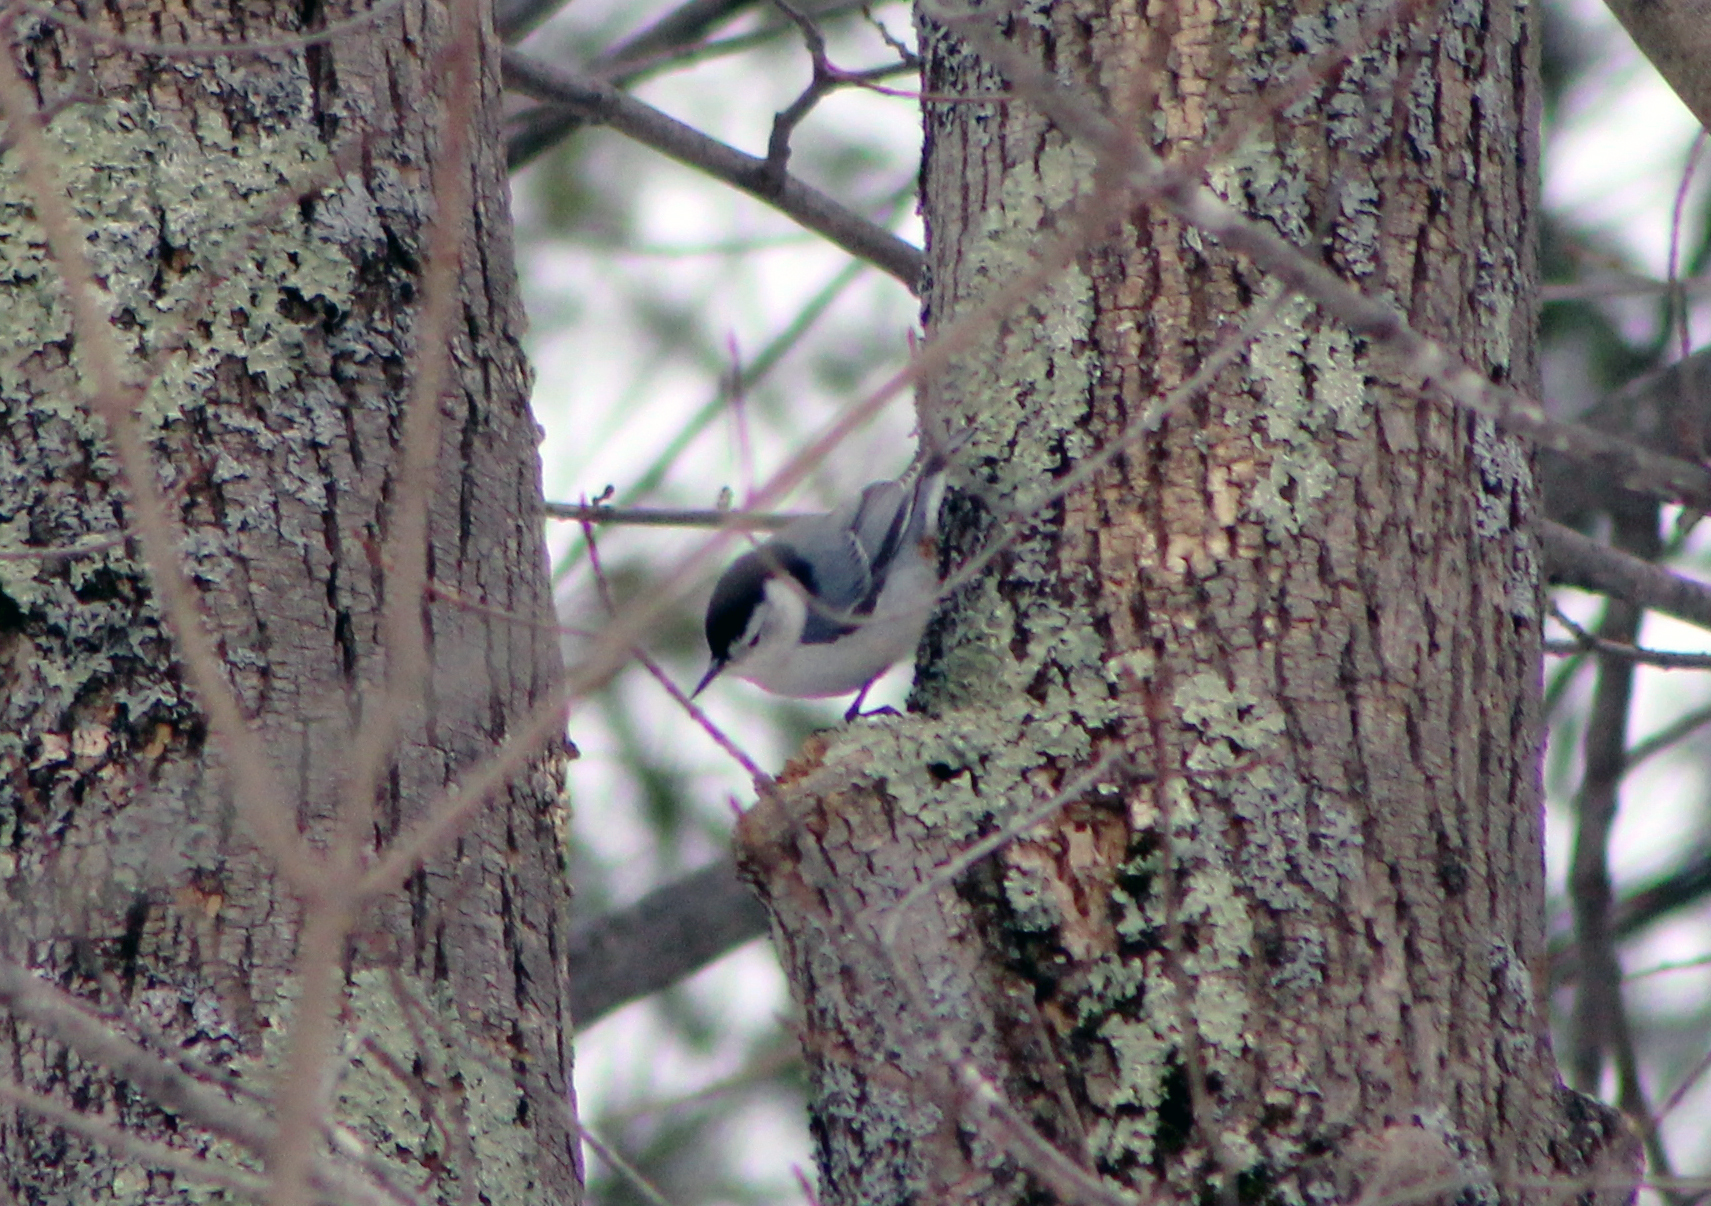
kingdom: Animalia
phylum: Chordata
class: Aves
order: Passeriformes
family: Sittidae
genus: Sitta
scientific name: Sitta carolinensis
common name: White-breasted nuthatch
